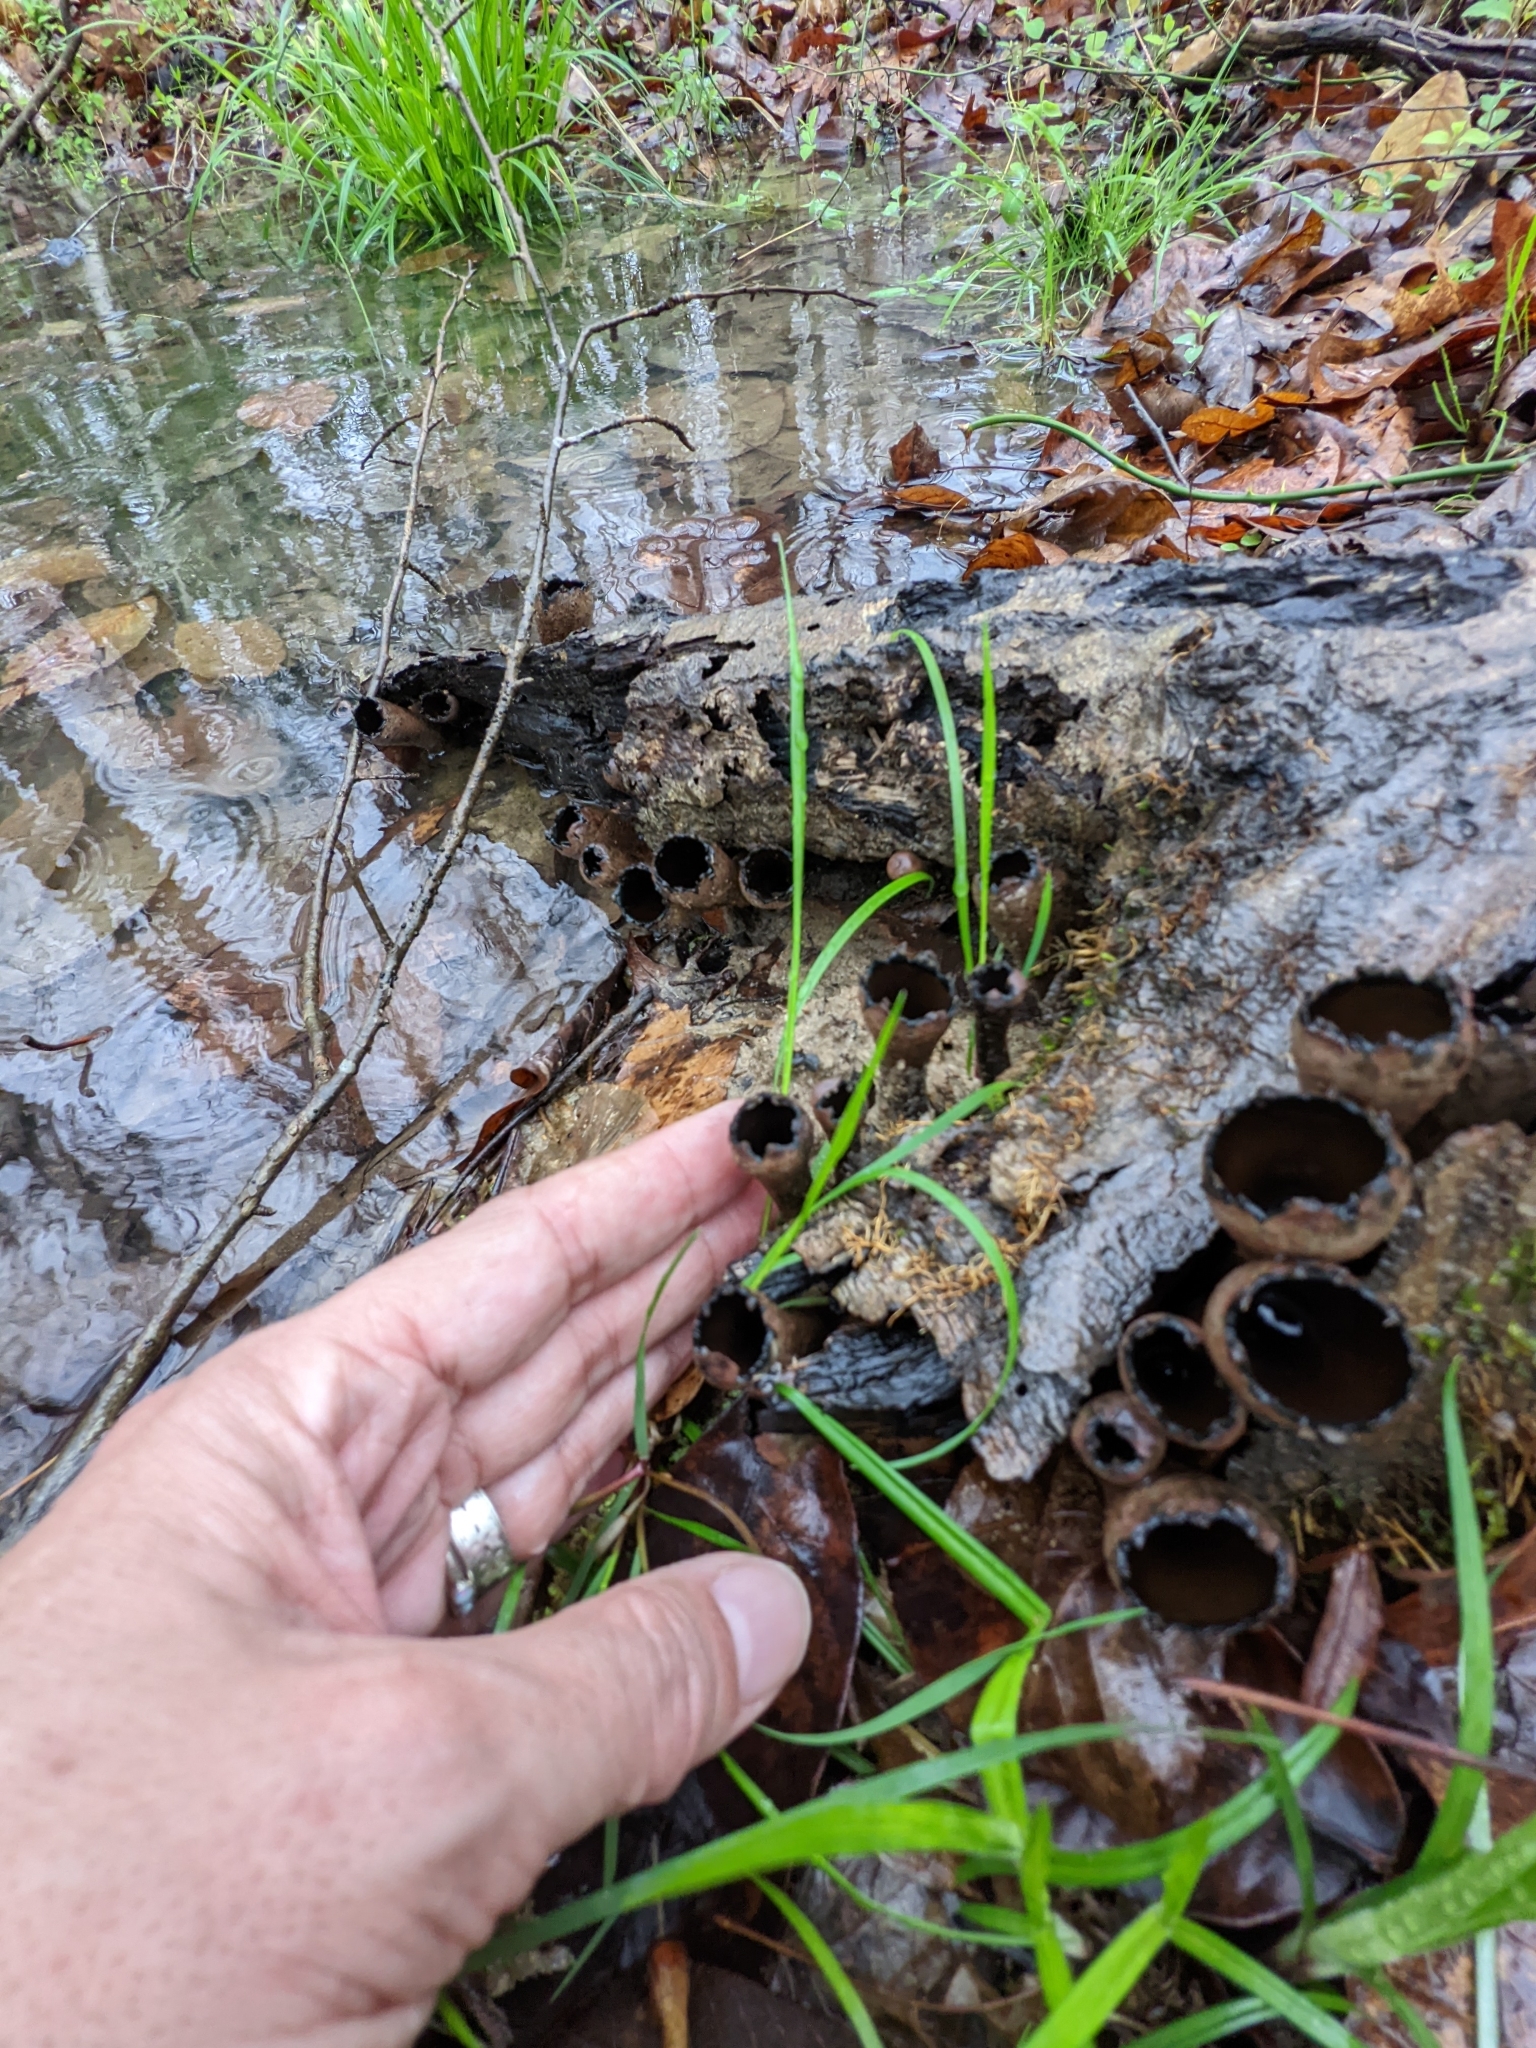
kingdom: Fungi
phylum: Ascomycota
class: Pezizomycetes
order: Pezizales
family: Sarcosomataceae
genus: Urnula
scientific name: Urnula craterium
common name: Devil's urn
